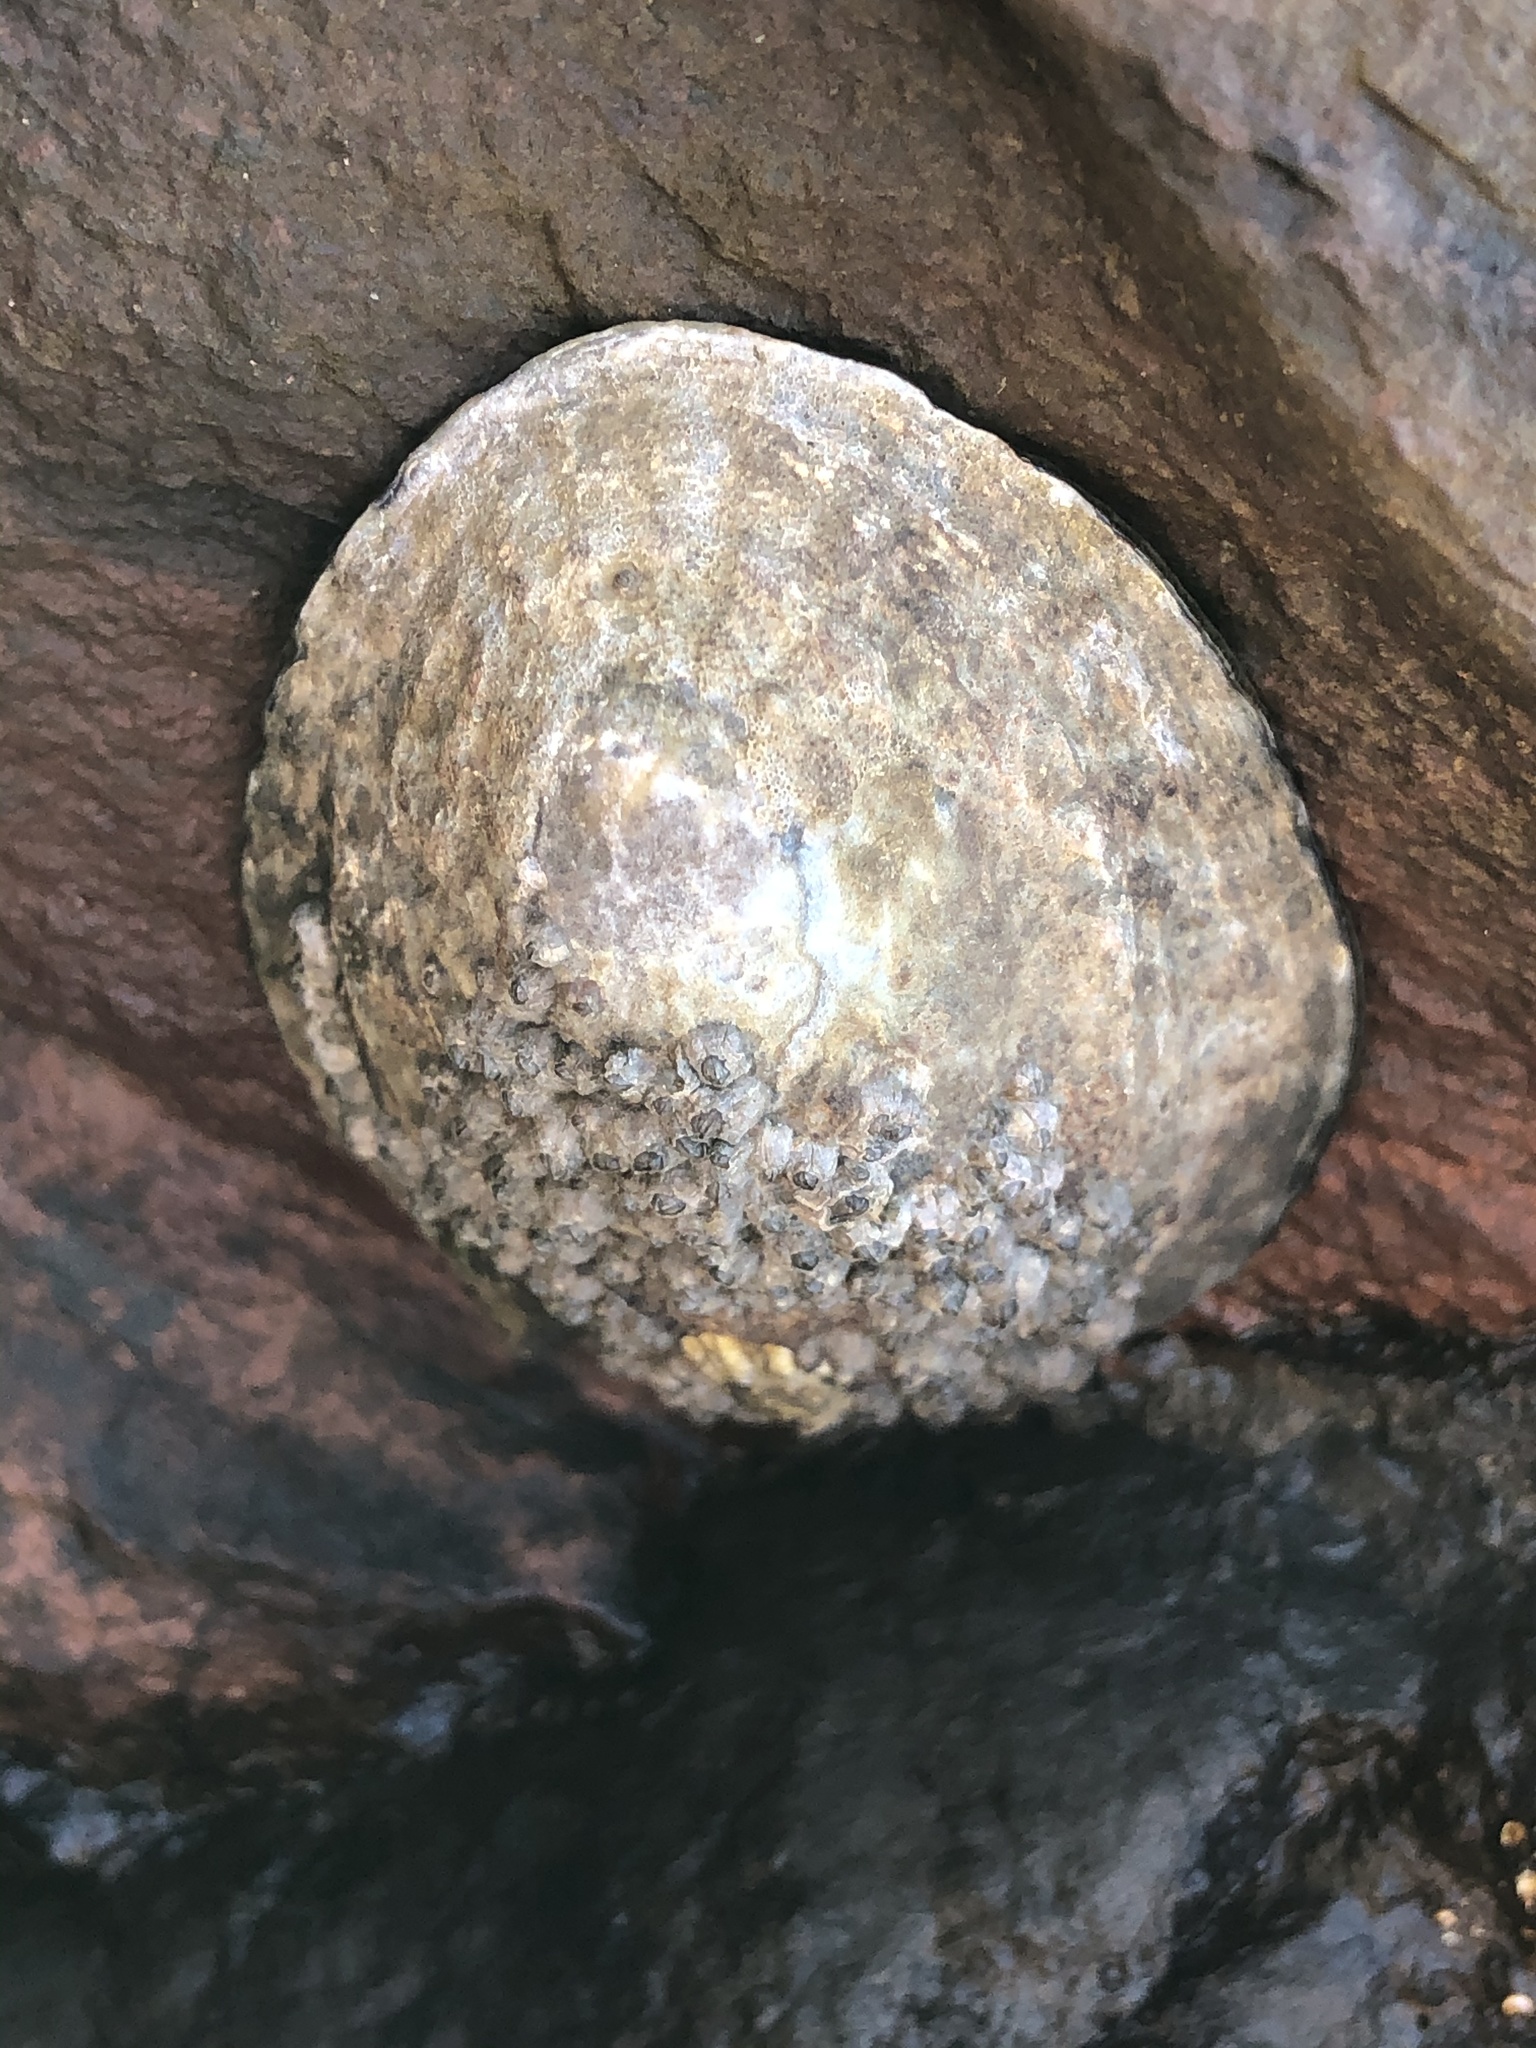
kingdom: Animalia
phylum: Mollusca
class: Gastropoda
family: Lottiidae
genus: Lottia
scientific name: Lottia gigantea
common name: Owl limpet
